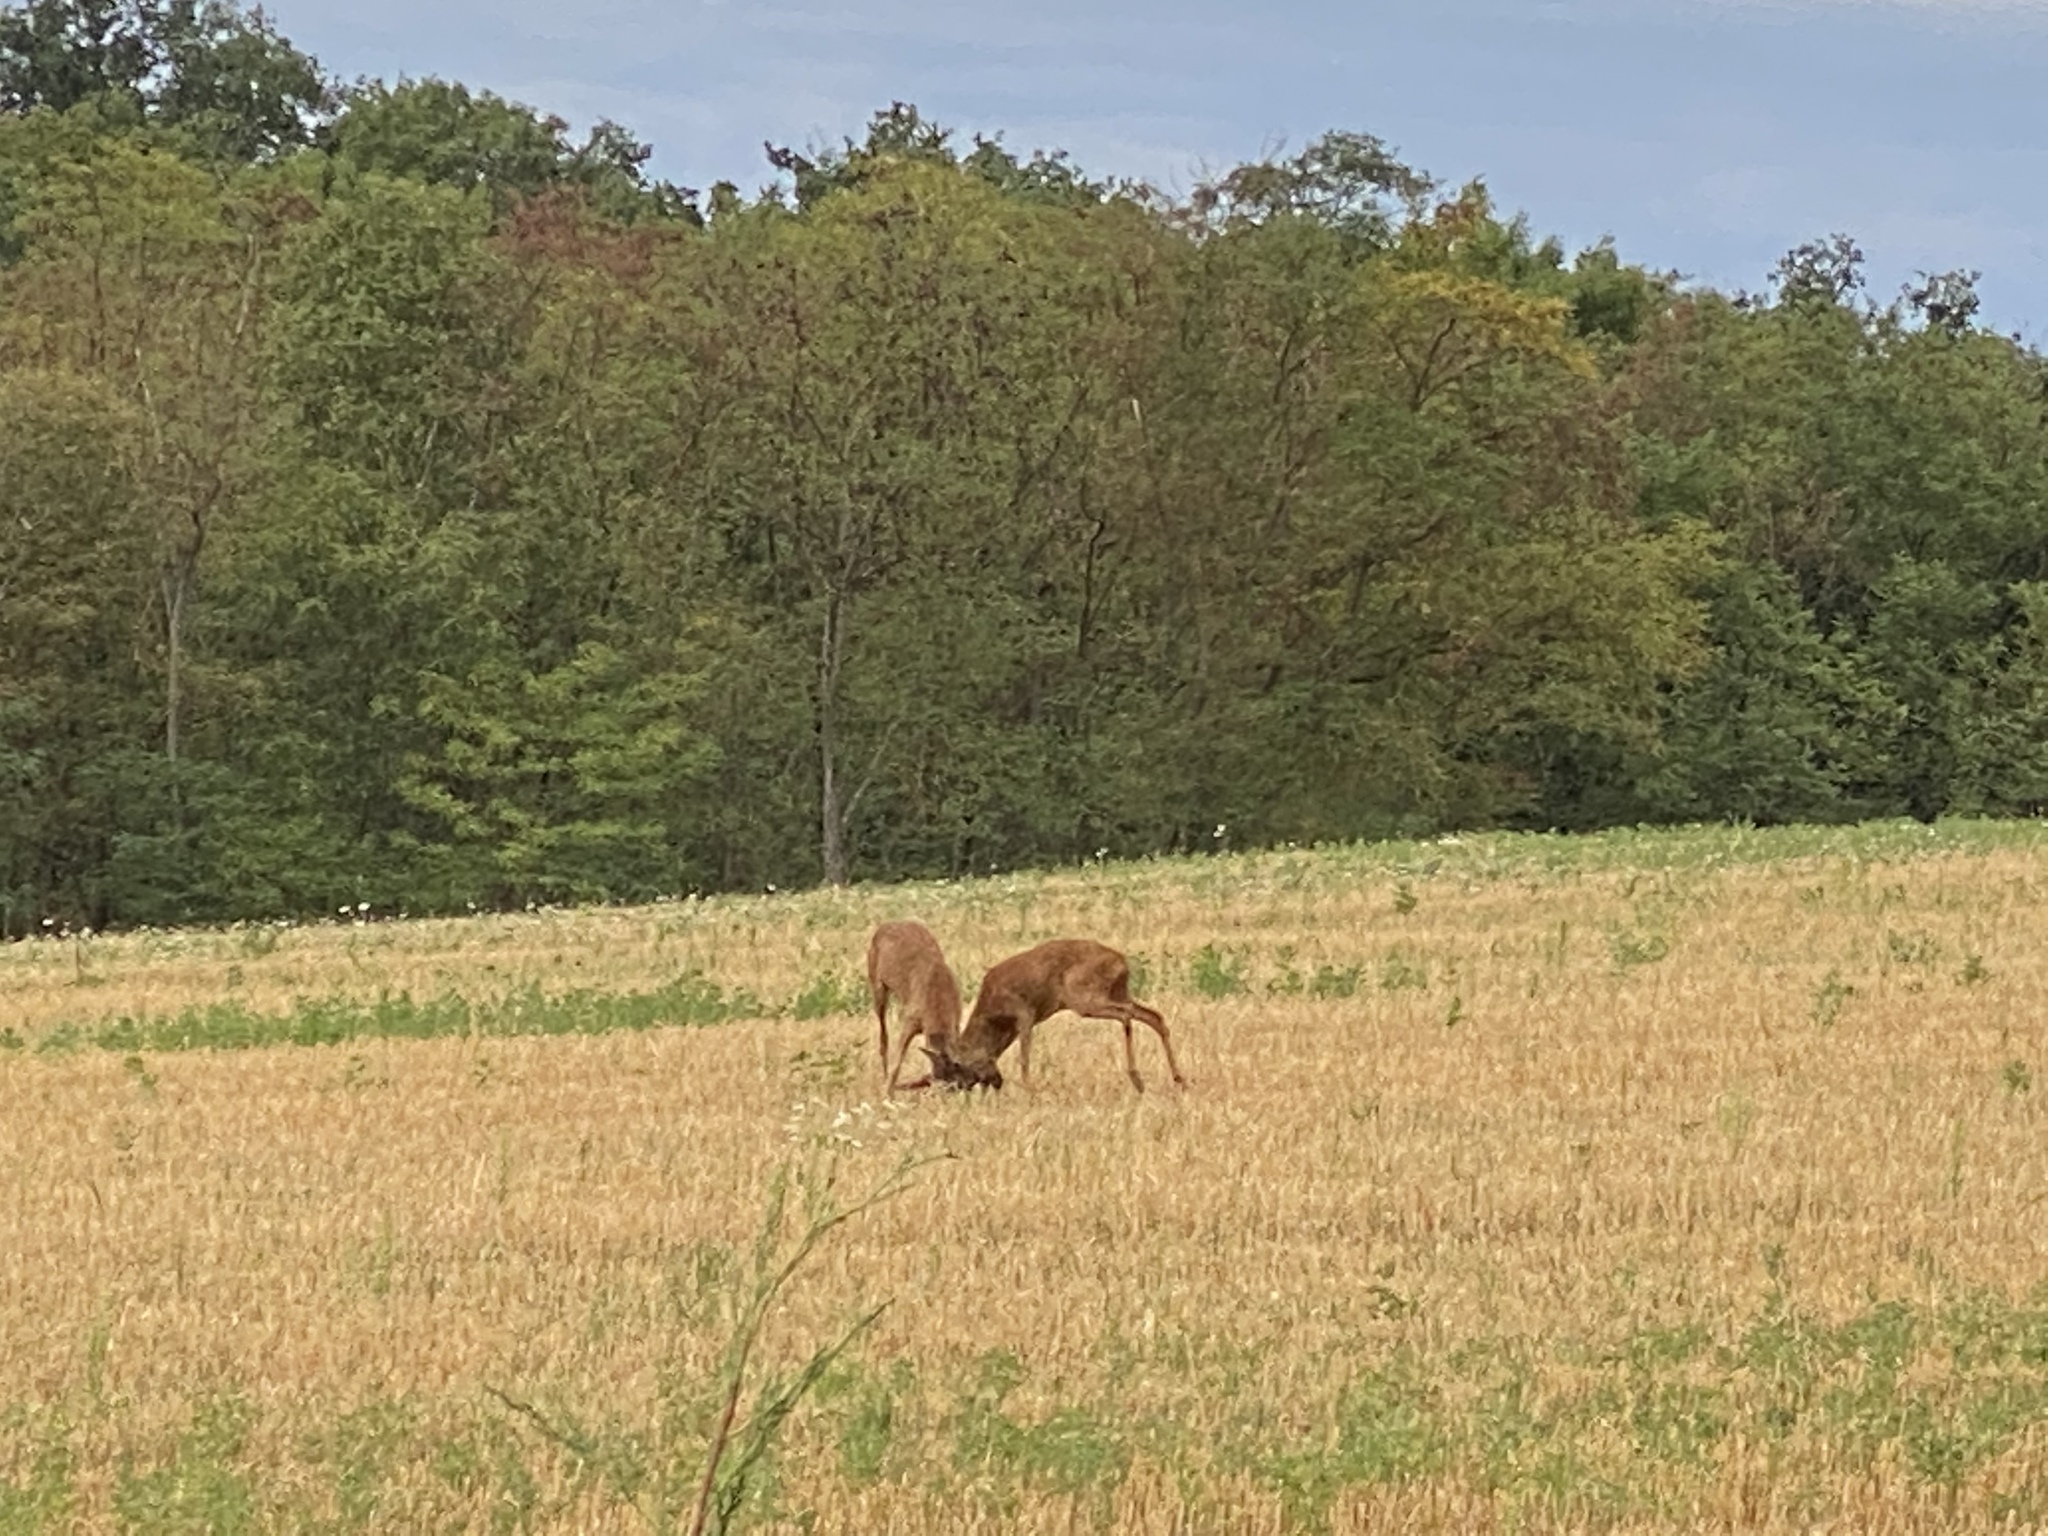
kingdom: Animalia
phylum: Chordata
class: Mammalia
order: Artiodactyla
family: Cervidae
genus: Capreolus
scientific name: Capreolus capreolus
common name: Western roe deer
